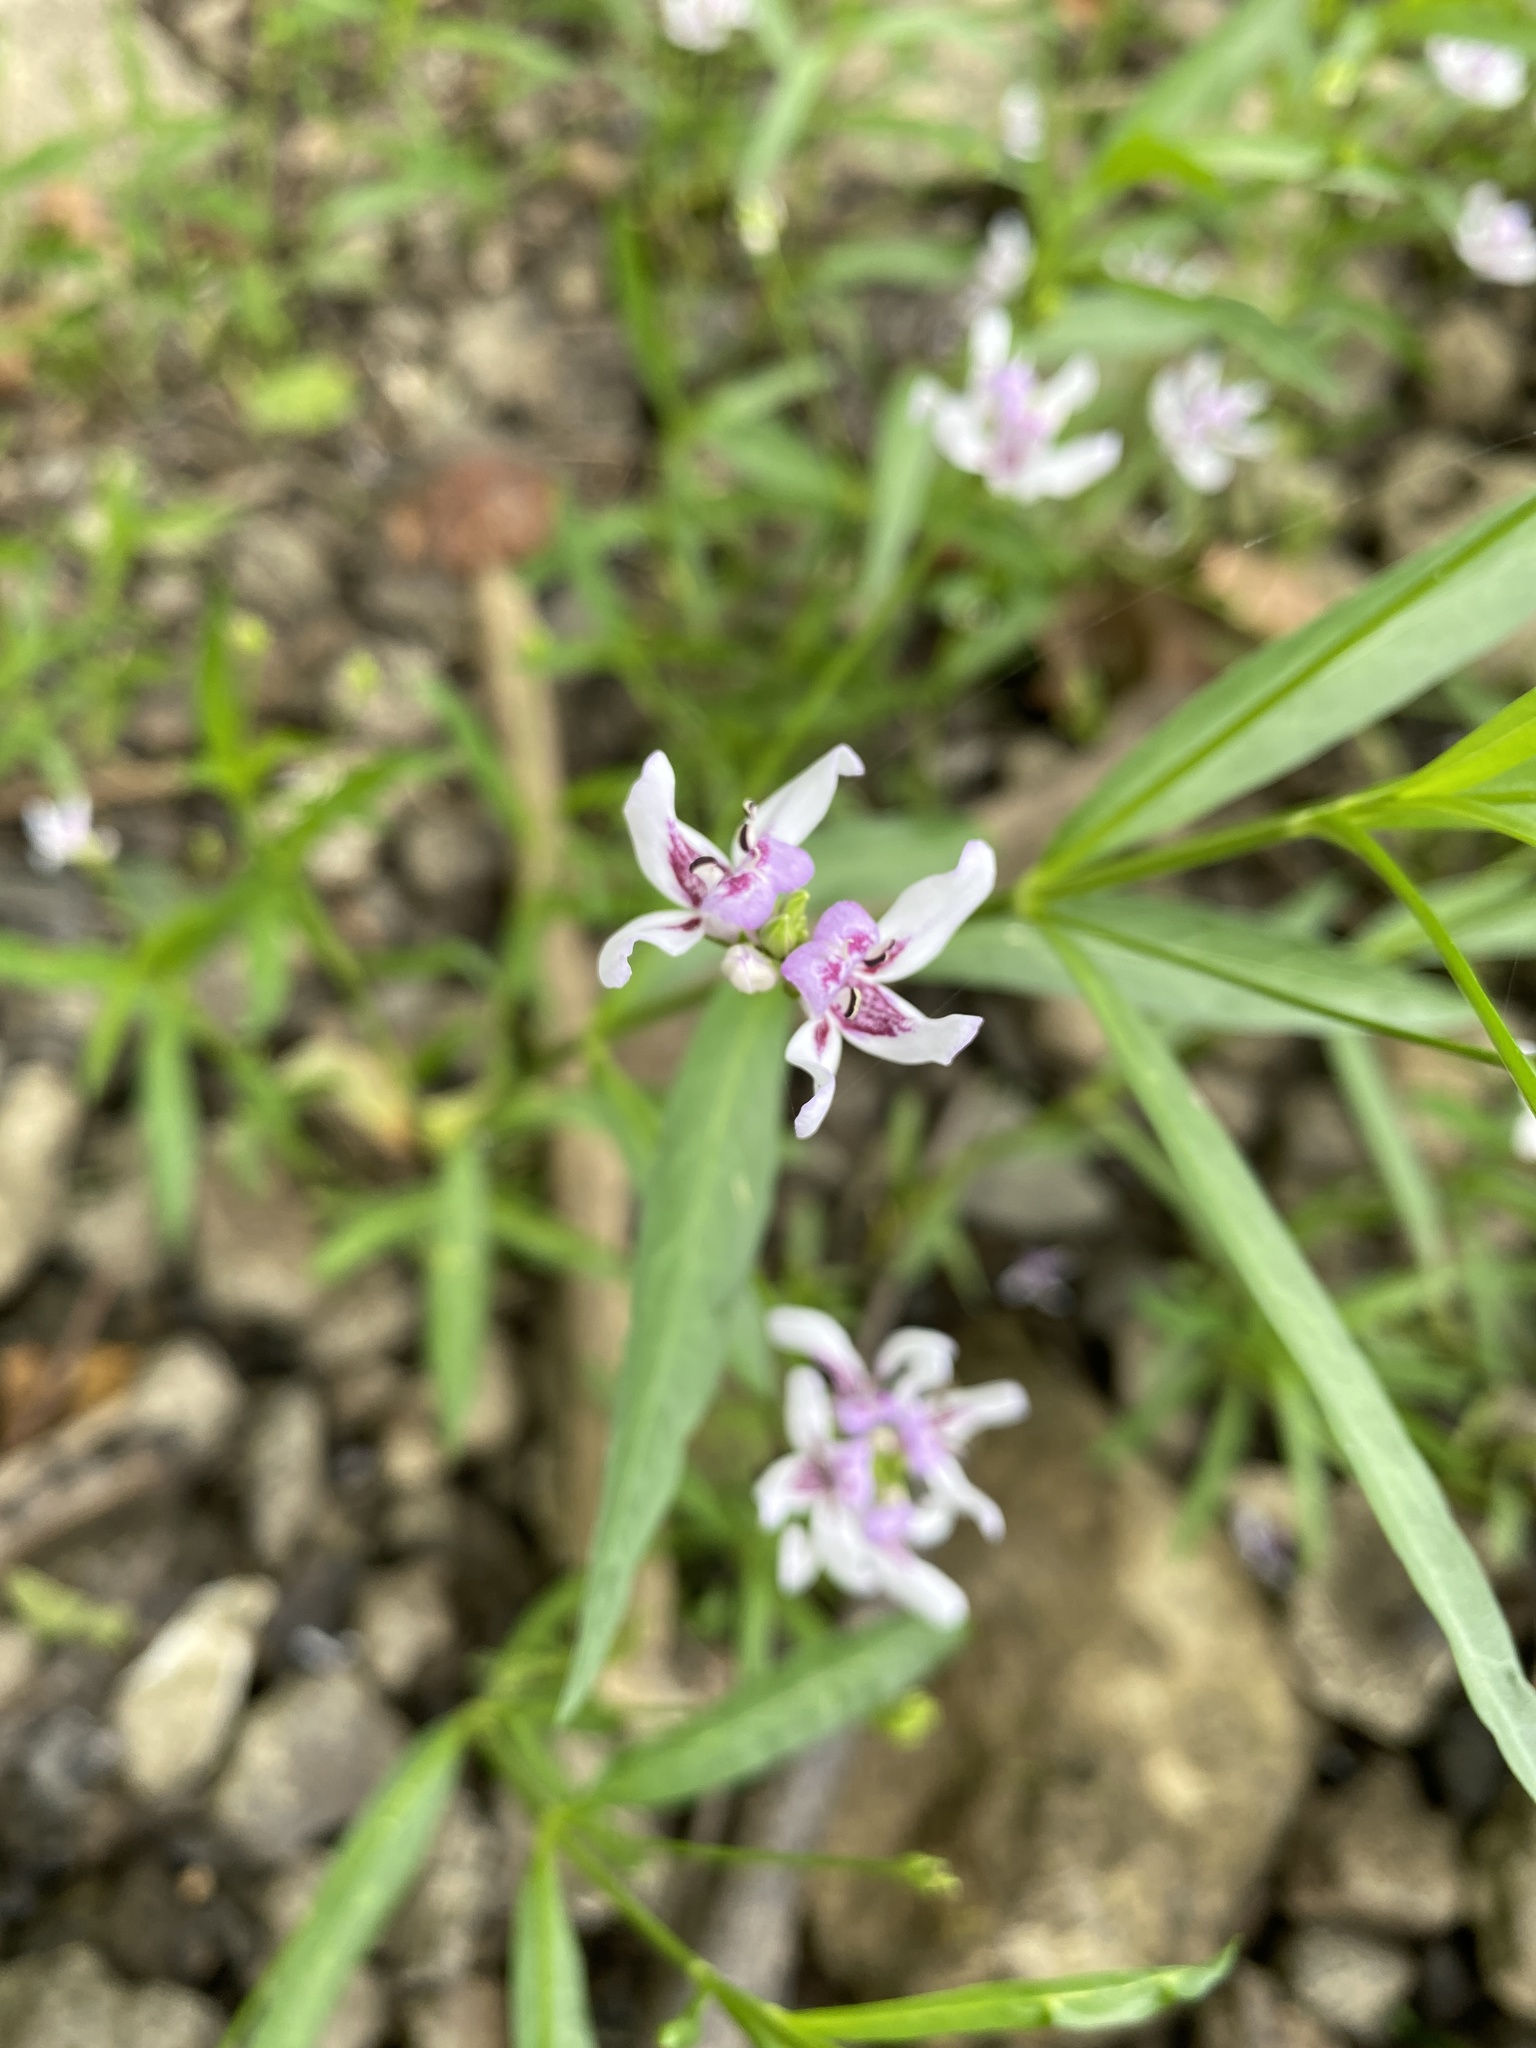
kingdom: Plantae
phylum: Tracheophyta
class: Magnoliopsida
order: Lamiales
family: Acanthaceae
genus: Dianthera
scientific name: Dianthera americana
